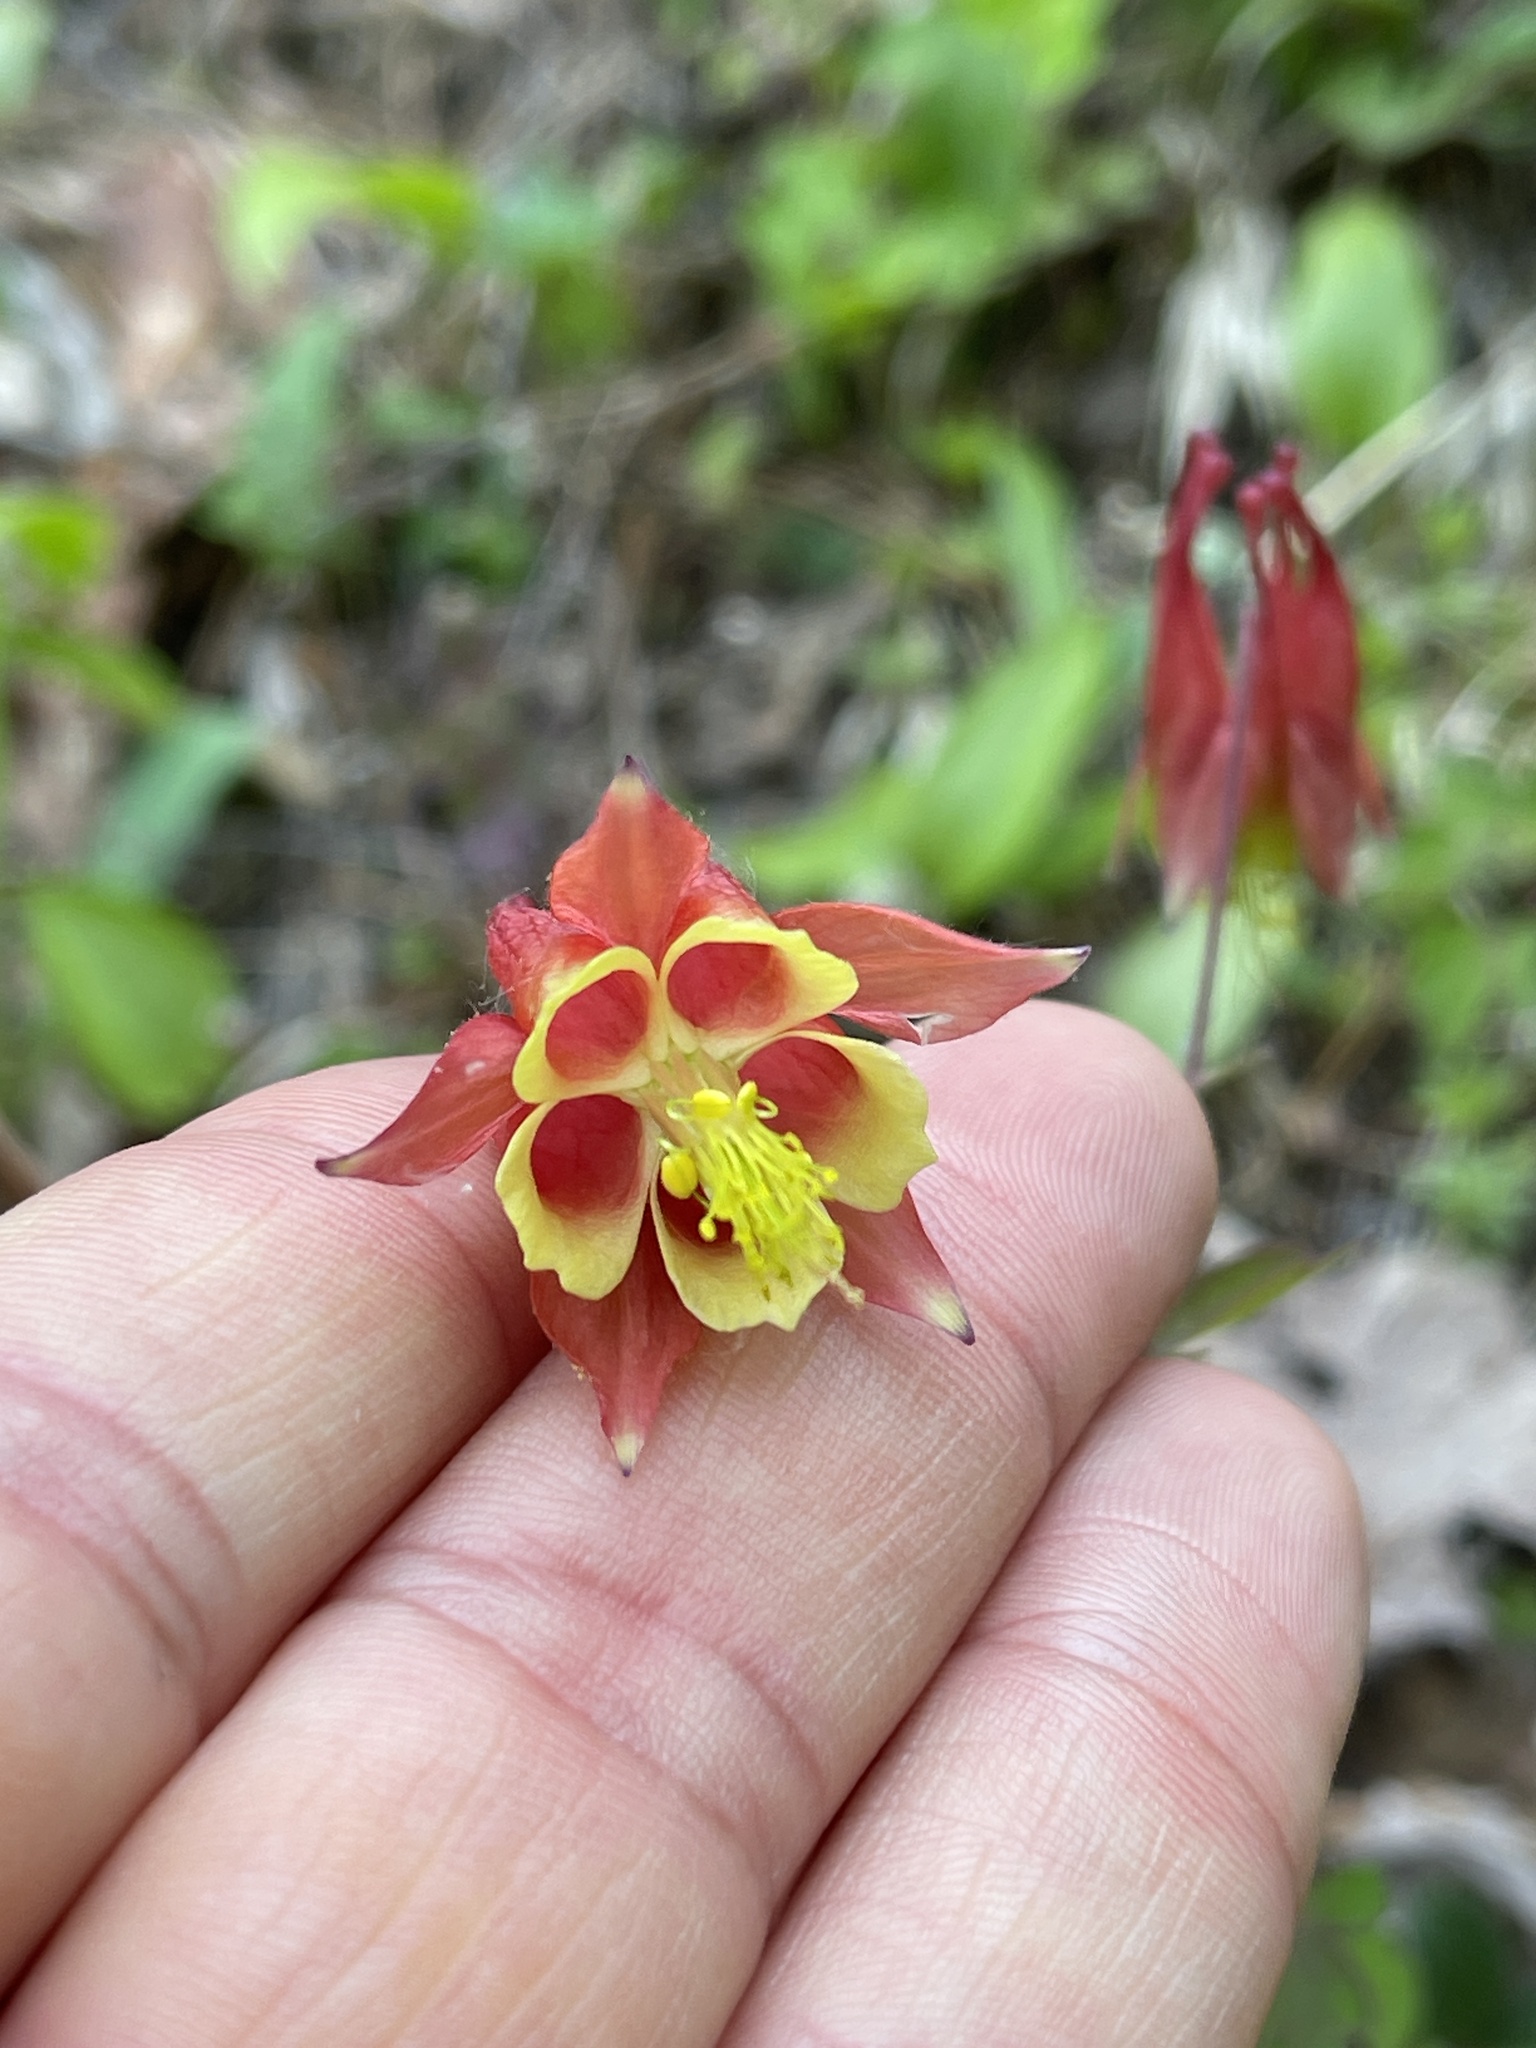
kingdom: Plantae
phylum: Tracheophyta
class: Magnoliopsida
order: Ranunculales
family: Ranunculaceae
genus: Aquilegia
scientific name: Aquilegia canadensis
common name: American columbine
